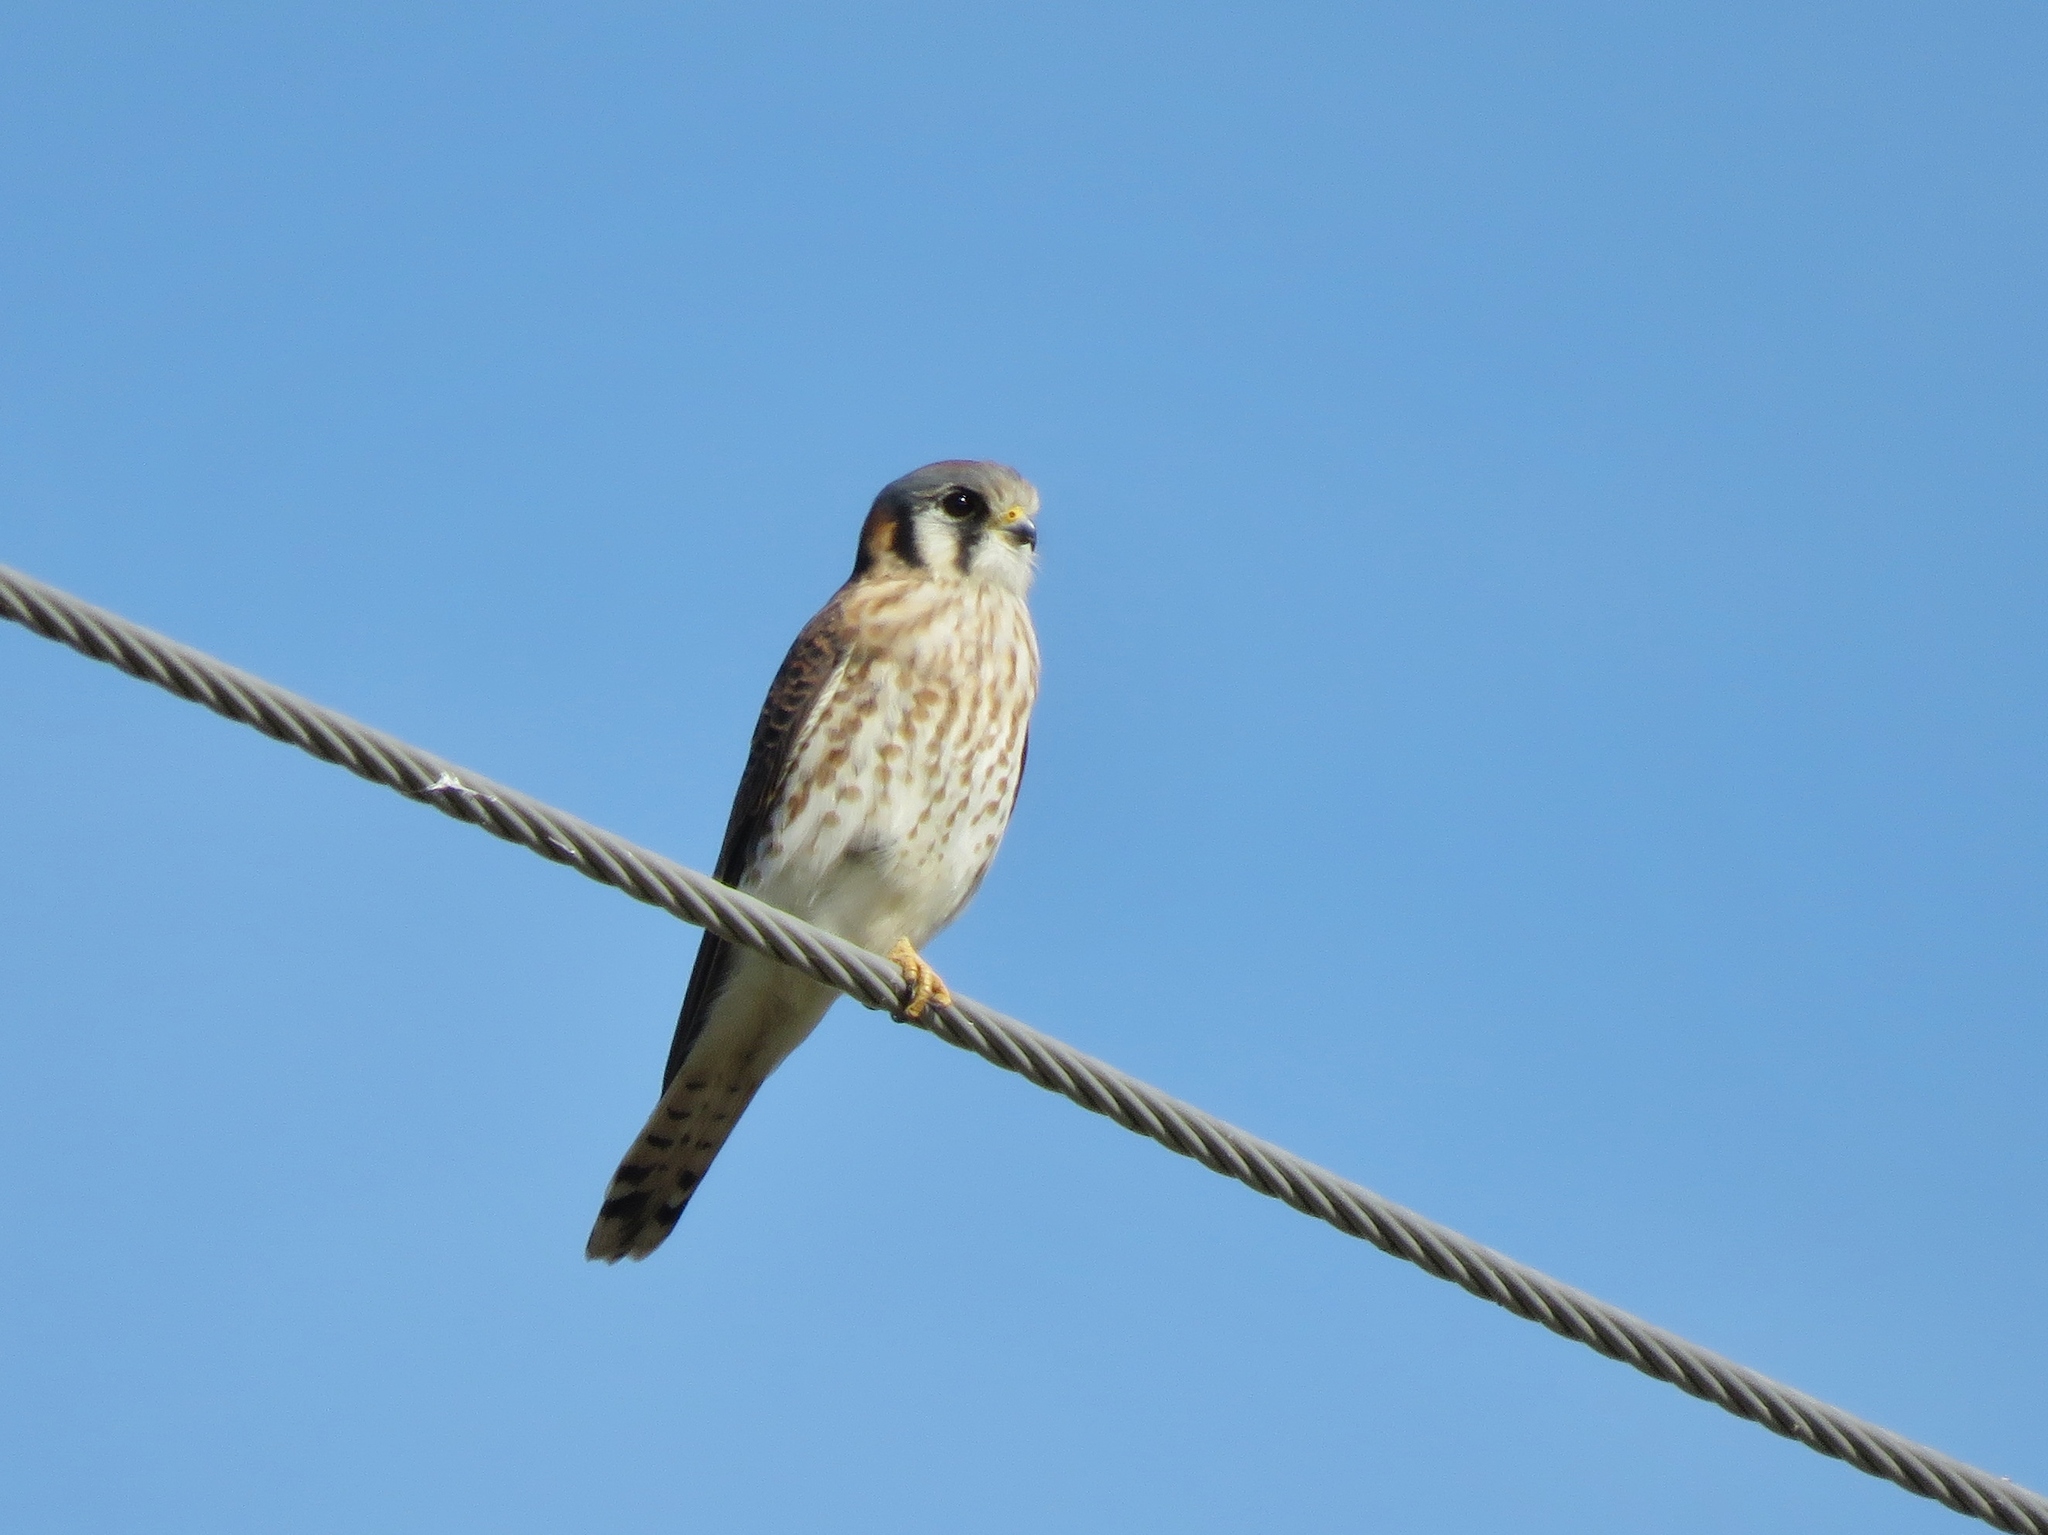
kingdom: Animalia
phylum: Chordata
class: Aves
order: Falconiformes
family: Falconidae
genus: Falco
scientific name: Falco sparverius
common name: American kestrel
